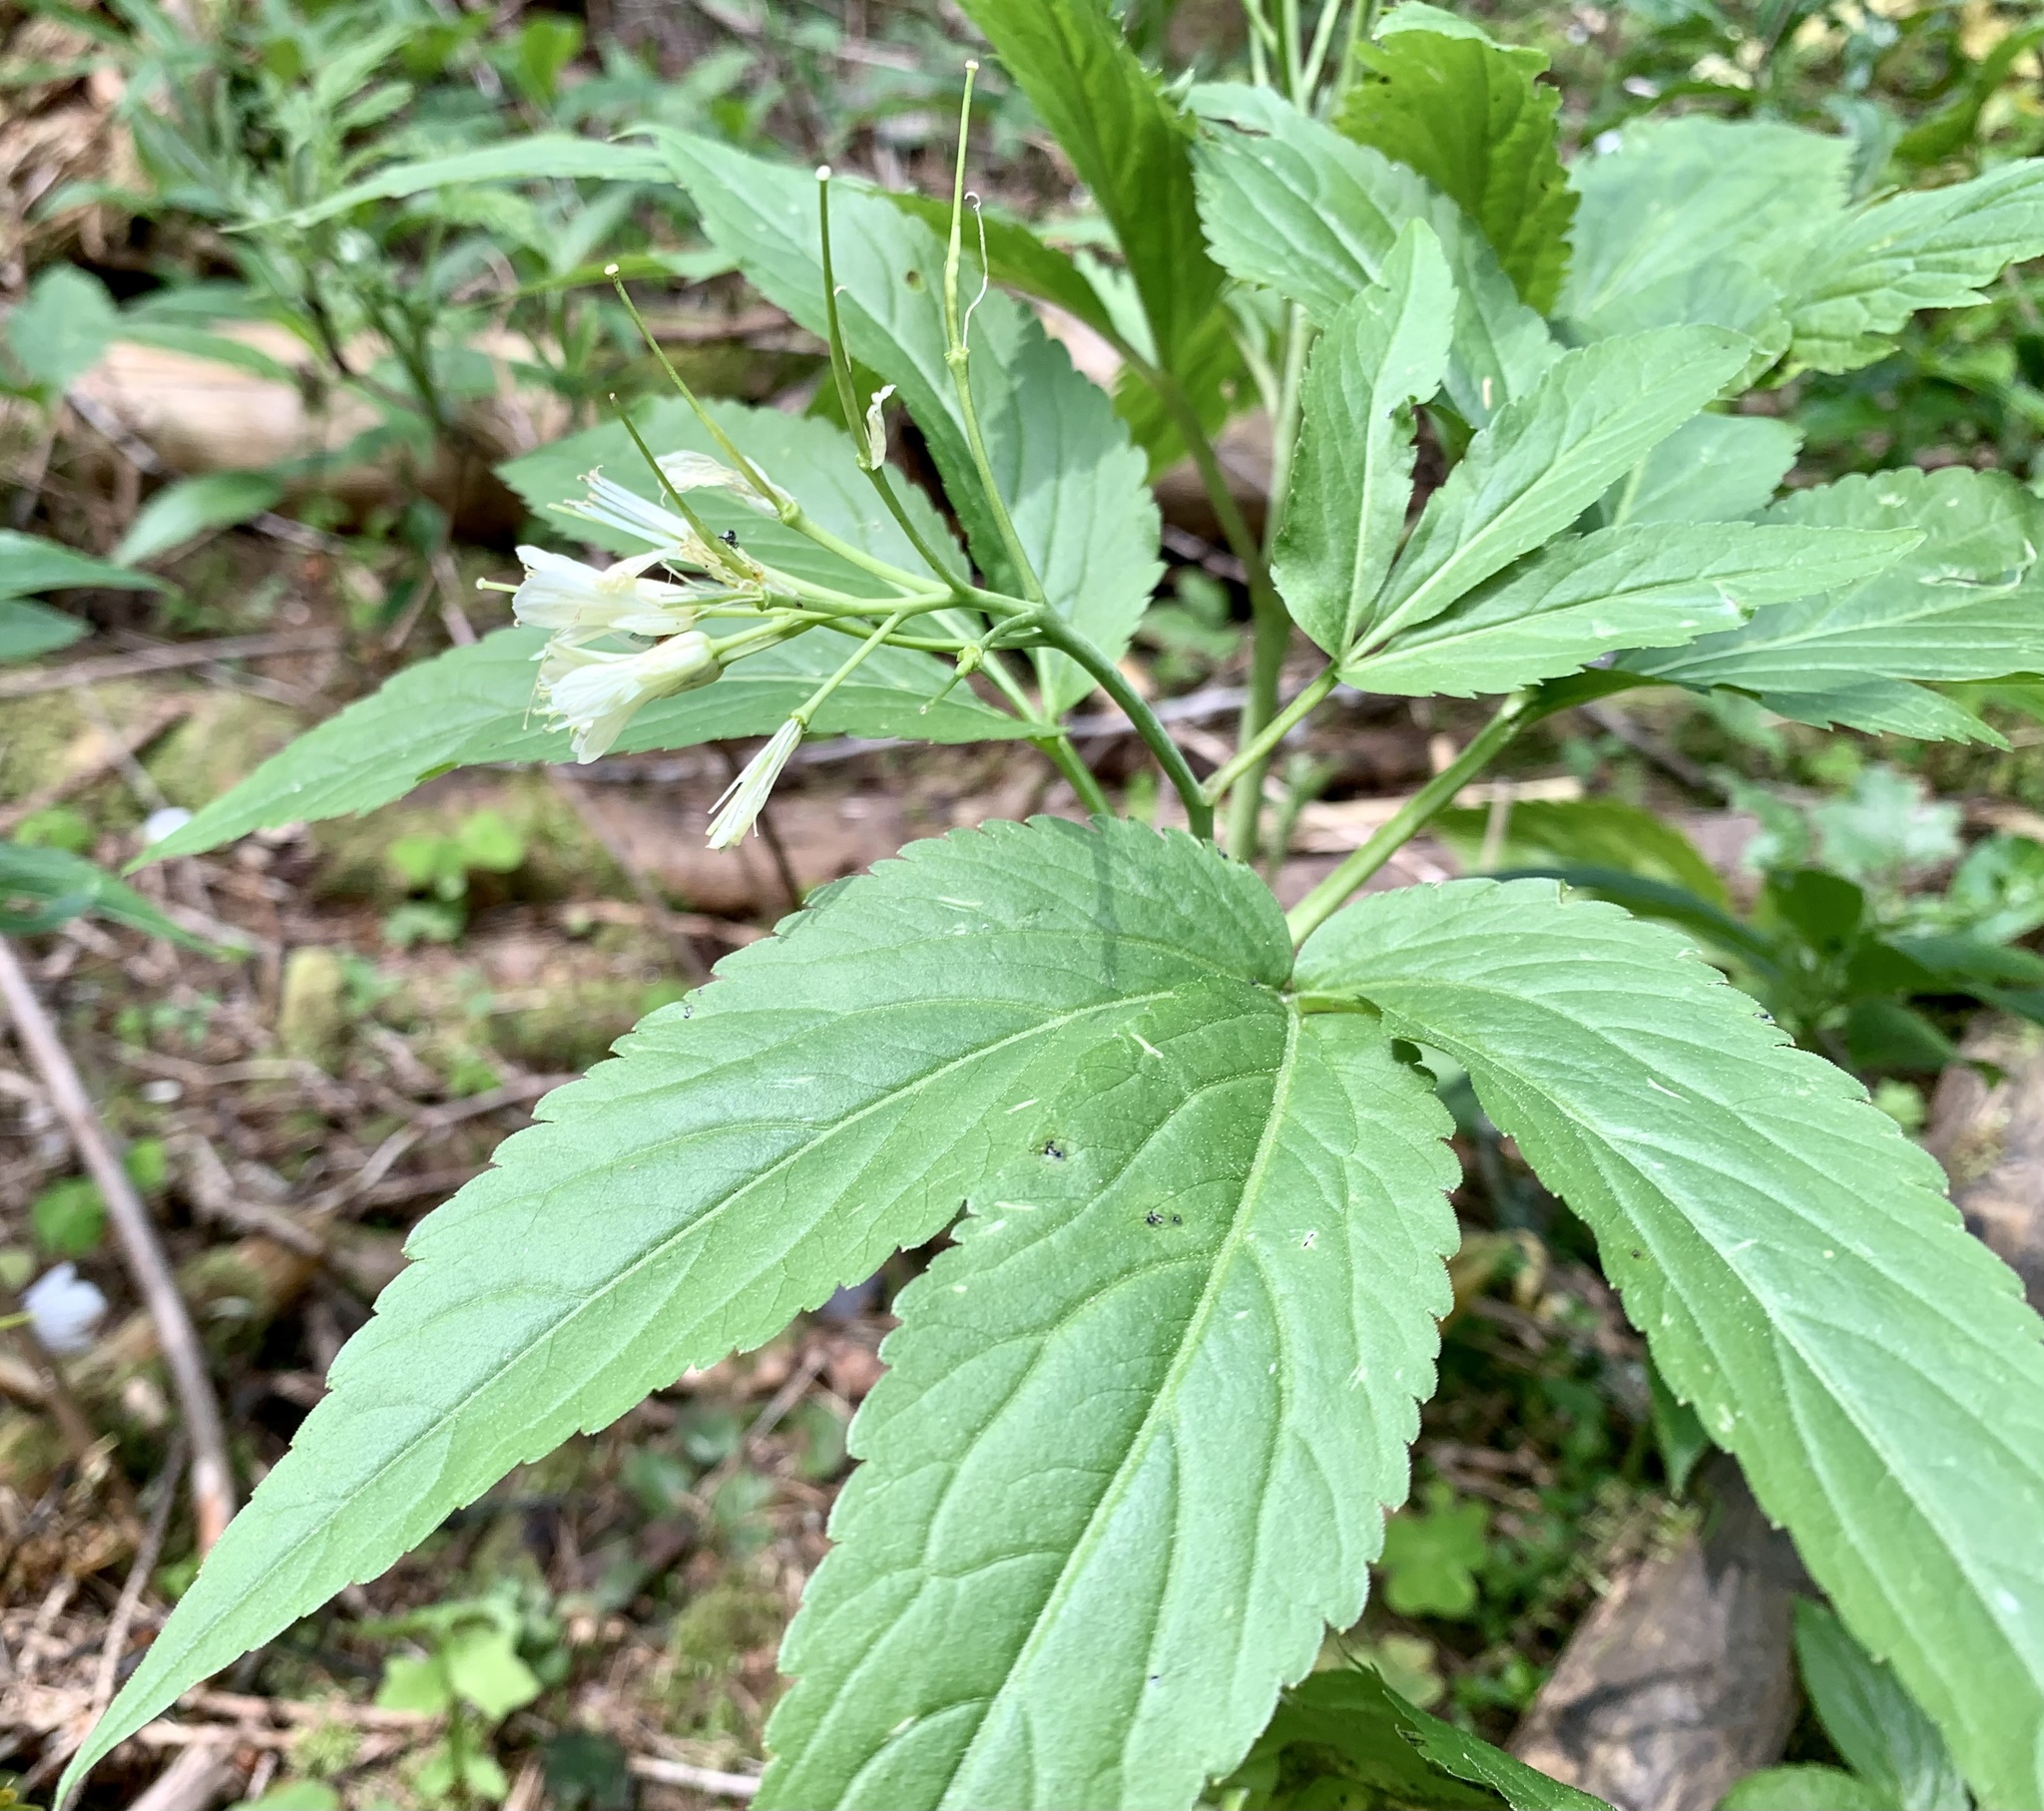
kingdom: Plantae
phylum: Tracheophyta
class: Magnoliopsida
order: Brassicales
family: Brassicaceae
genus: Cardamine
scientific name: Cardamine enneaphyllos
